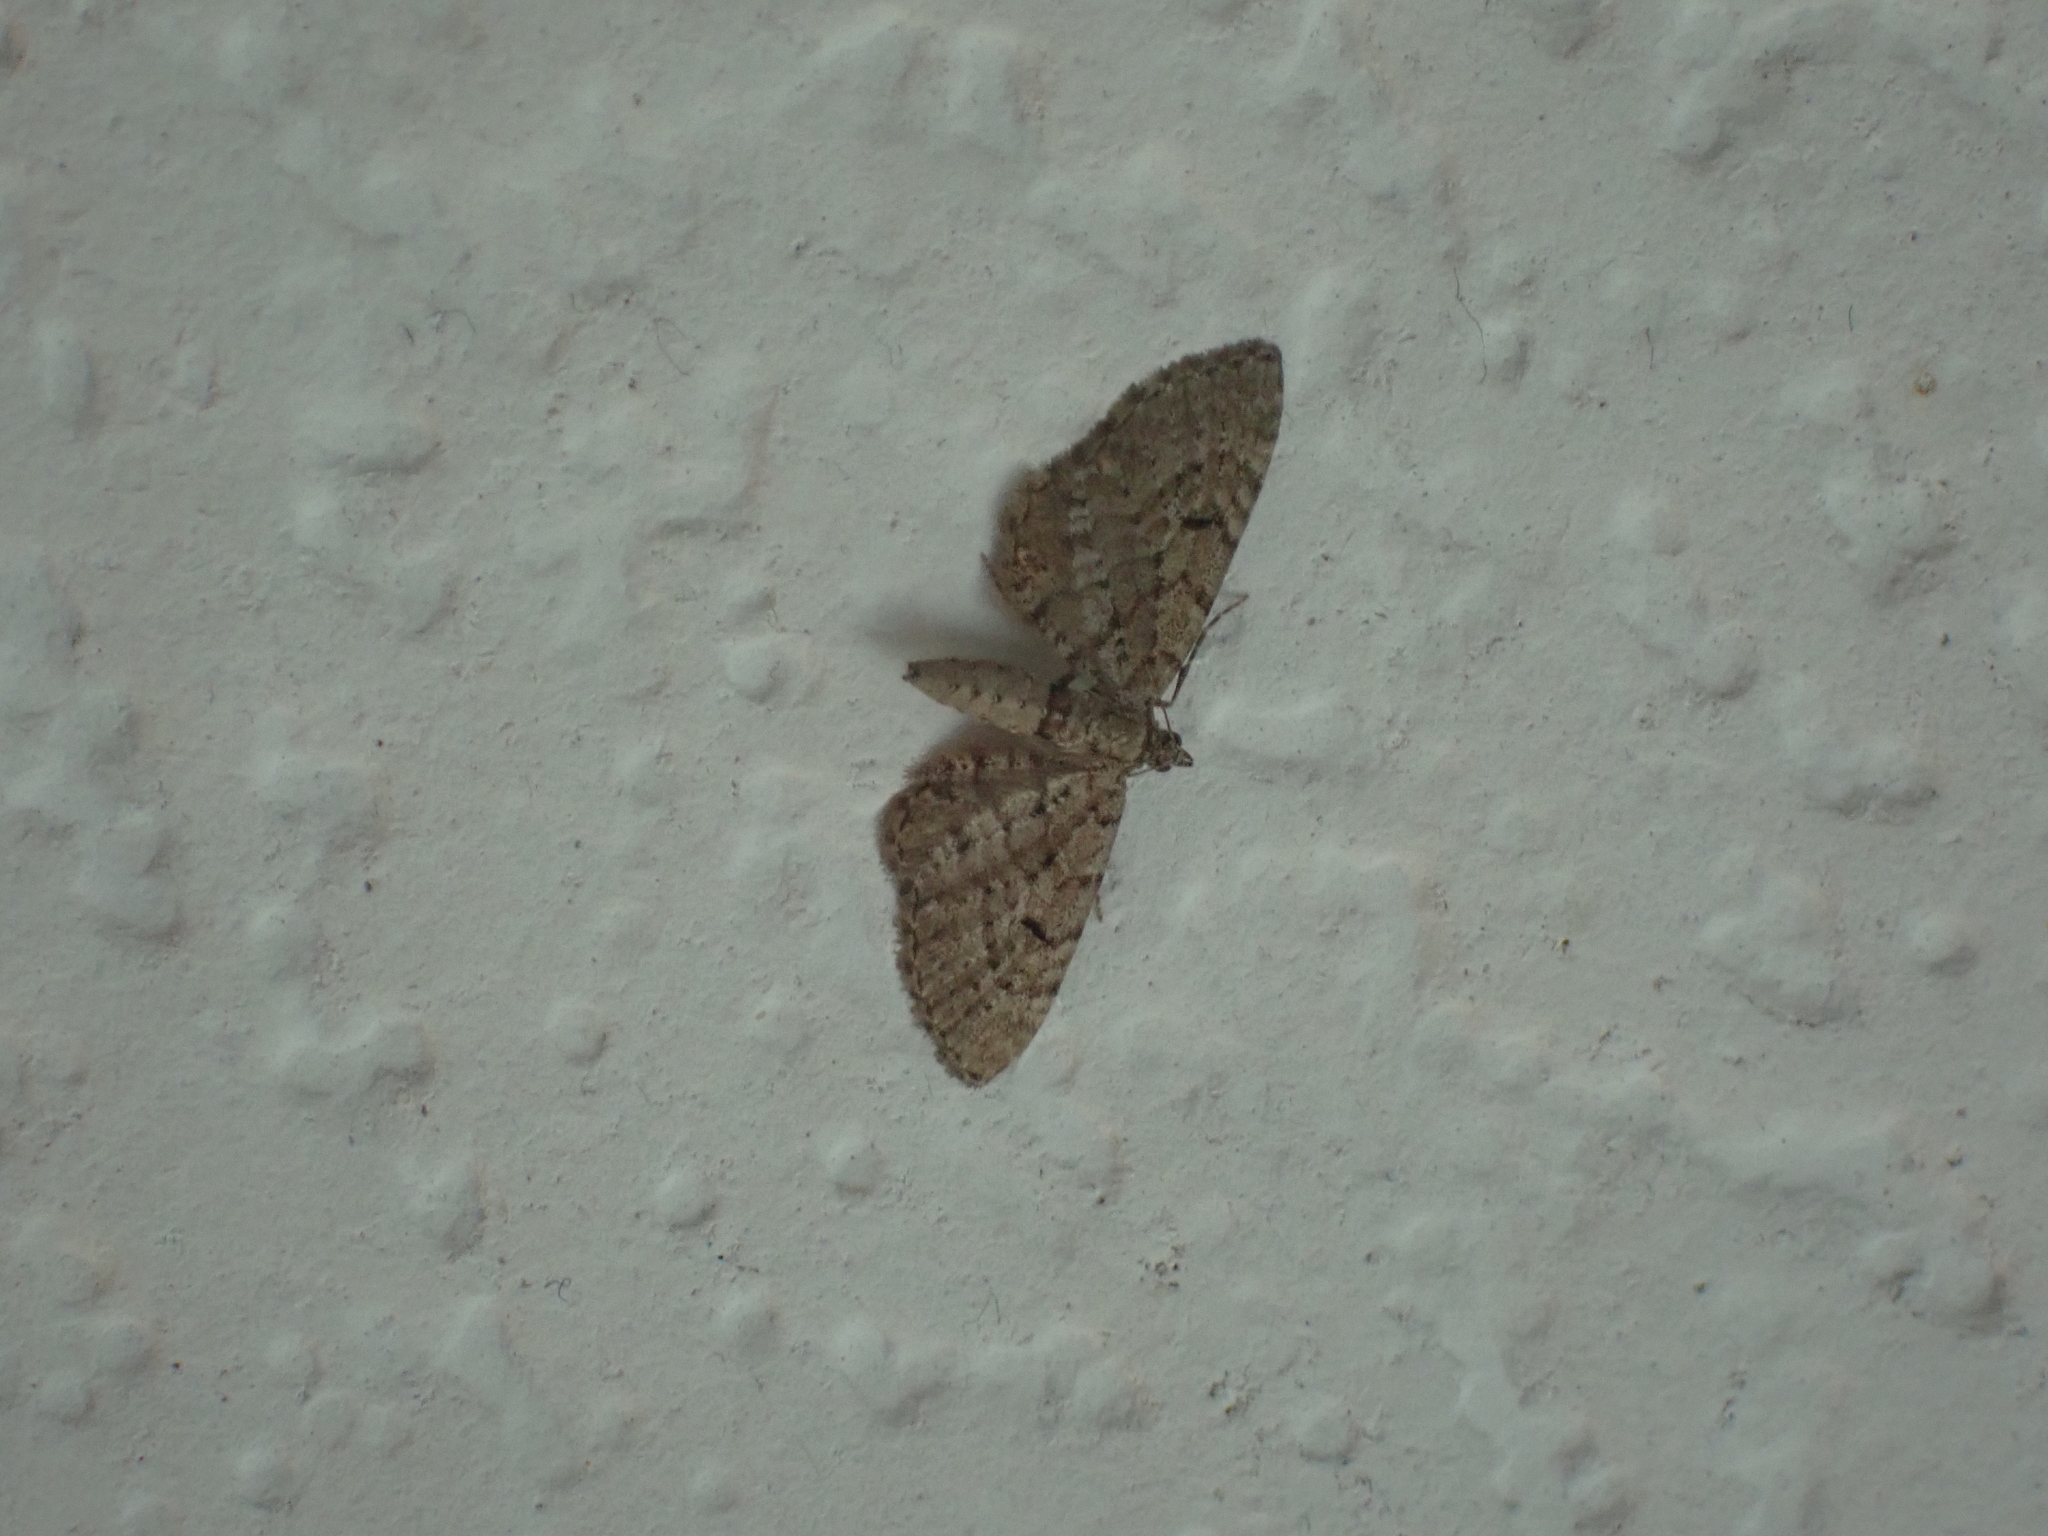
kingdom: Animalia
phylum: Arthropoda
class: Insecta
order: Lepidoptera
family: Geometridae
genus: Eupithecia
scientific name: Eupithecia intricata
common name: Freyers pug
